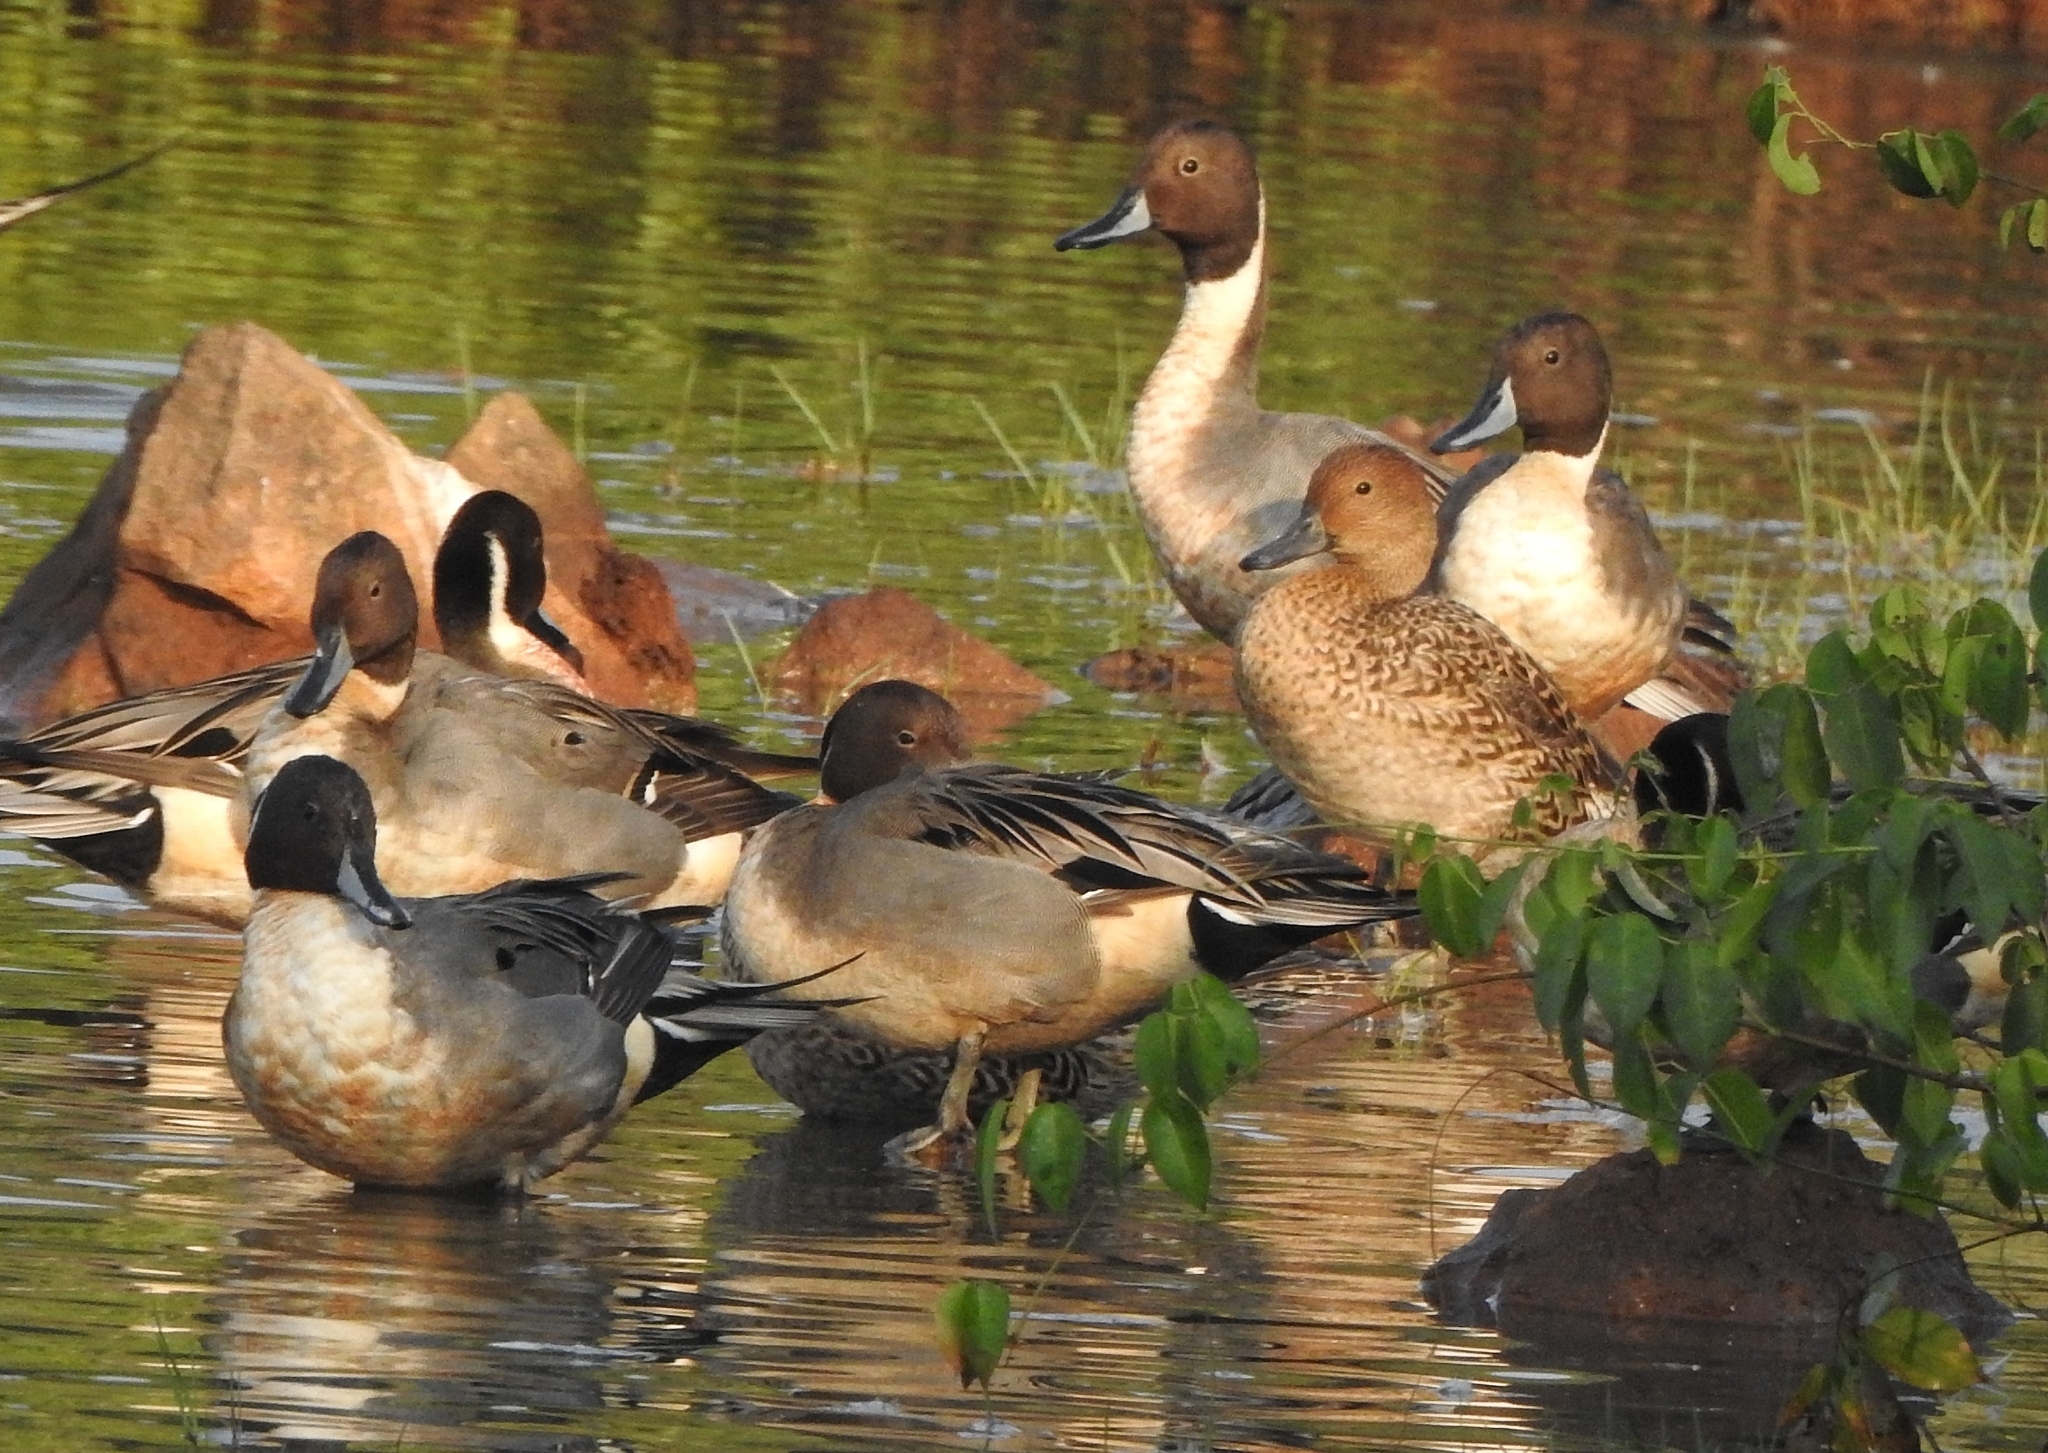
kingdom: Animalia
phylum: Chordata
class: Aves
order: Anseriformes
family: Anatidae
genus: Anas
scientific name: Anas acuta
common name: Northern pintail
